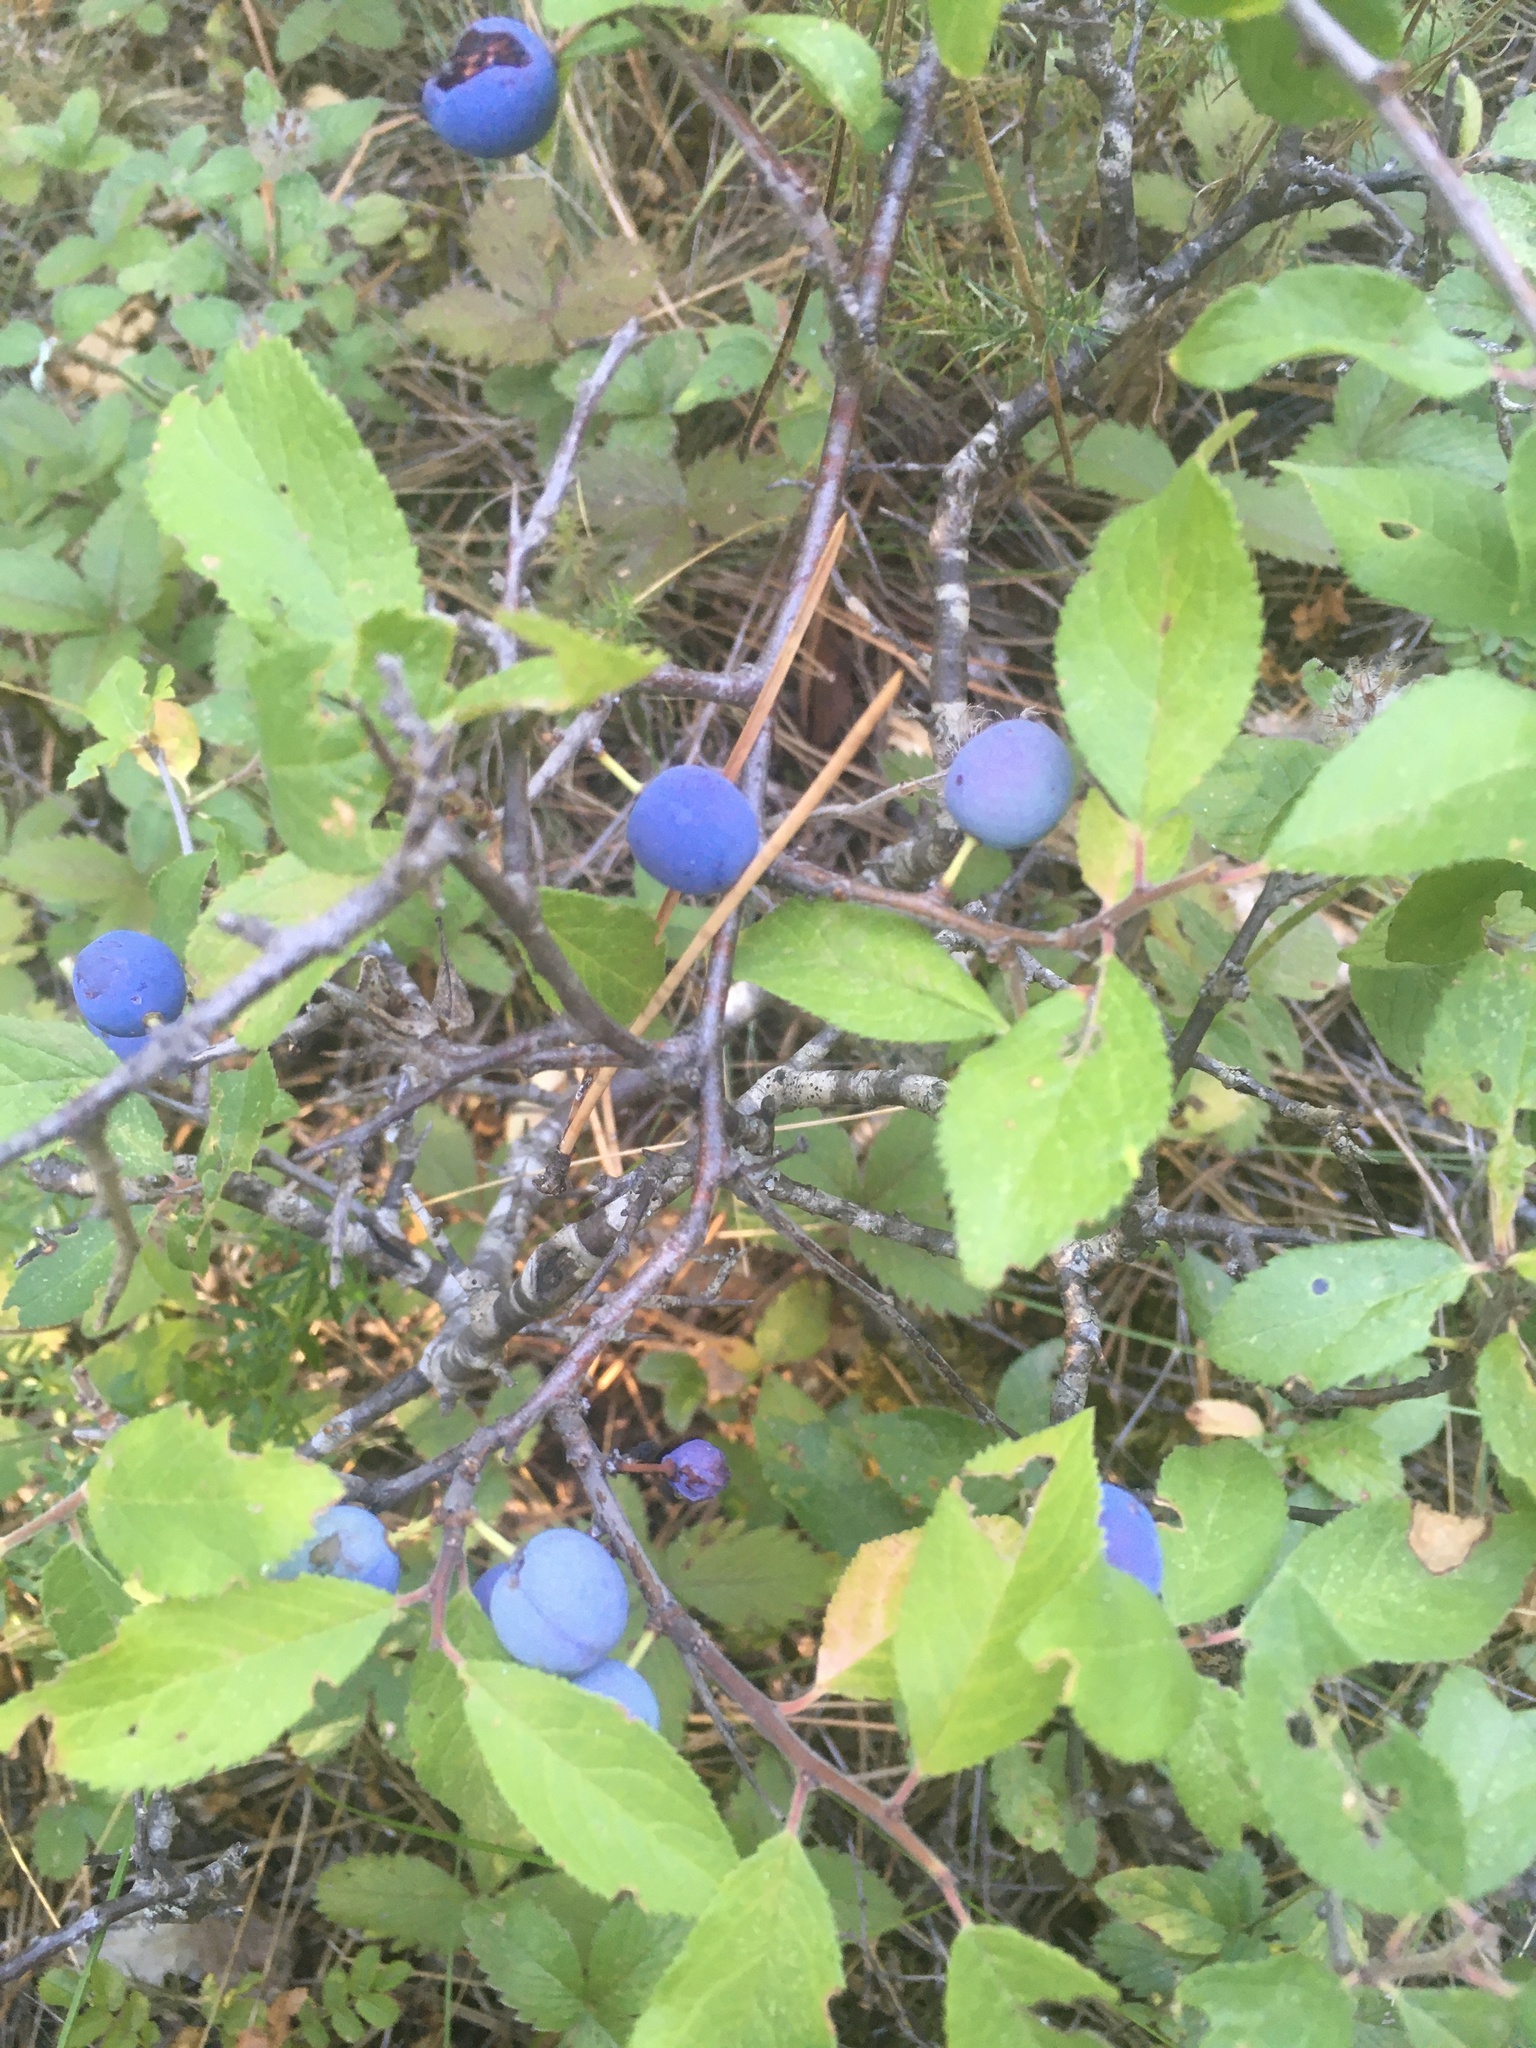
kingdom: Plantae
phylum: Tracheophyta
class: Magnoliopsida
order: Rosales
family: Rosaceae
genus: Prunus
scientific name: Prunus spinosa
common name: Blackthorn
